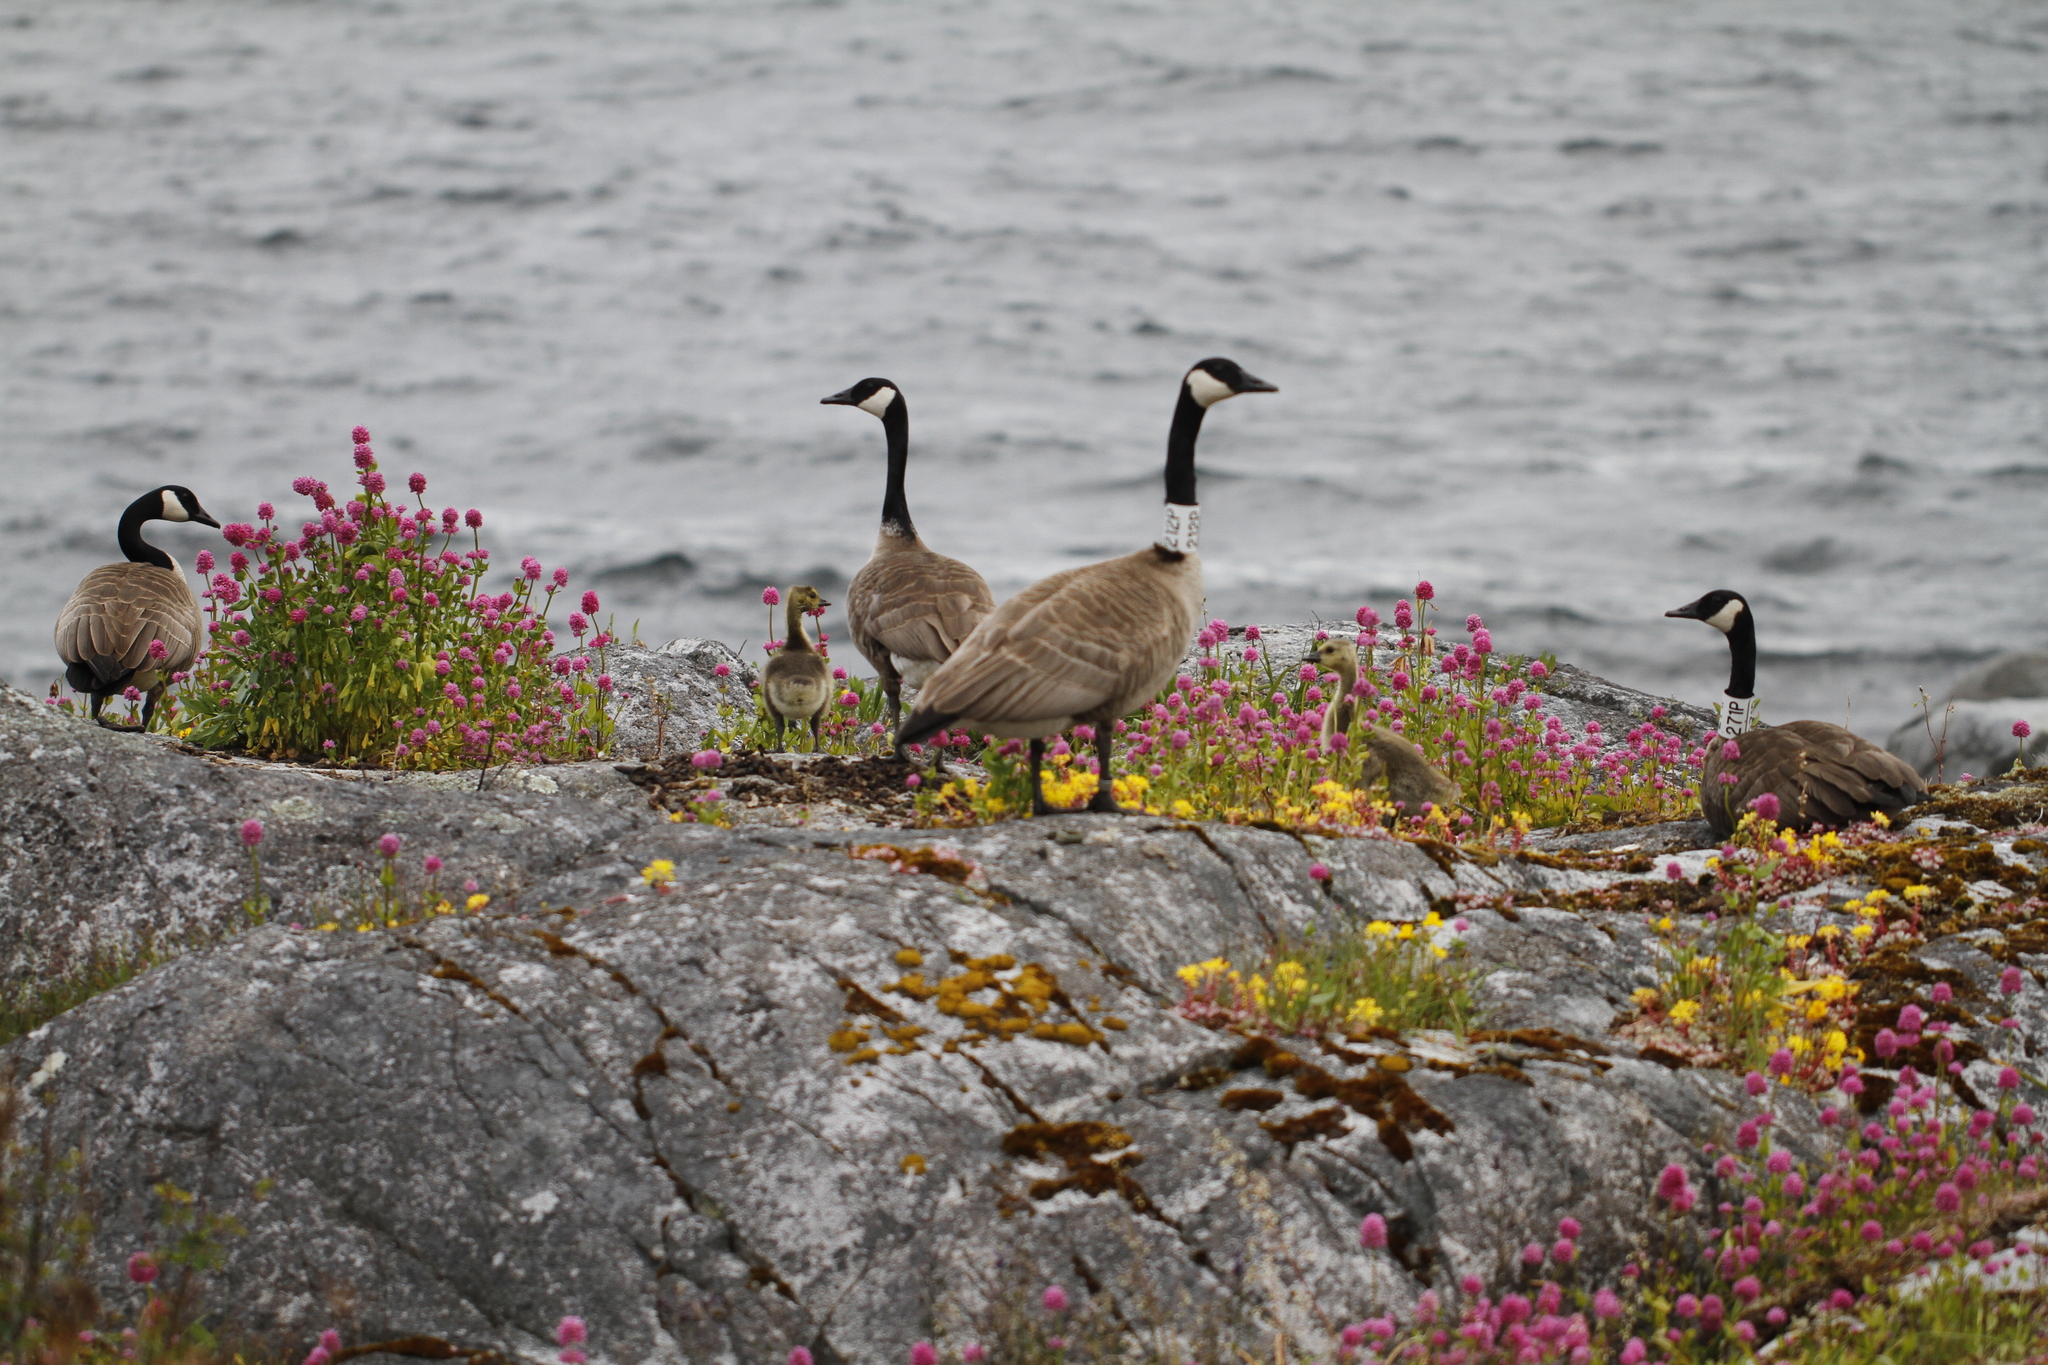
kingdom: Animalia
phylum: Chordata
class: Aves
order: Anseriformes
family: Anatidae
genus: Branta
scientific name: Branta canadensis
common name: Canada goose
